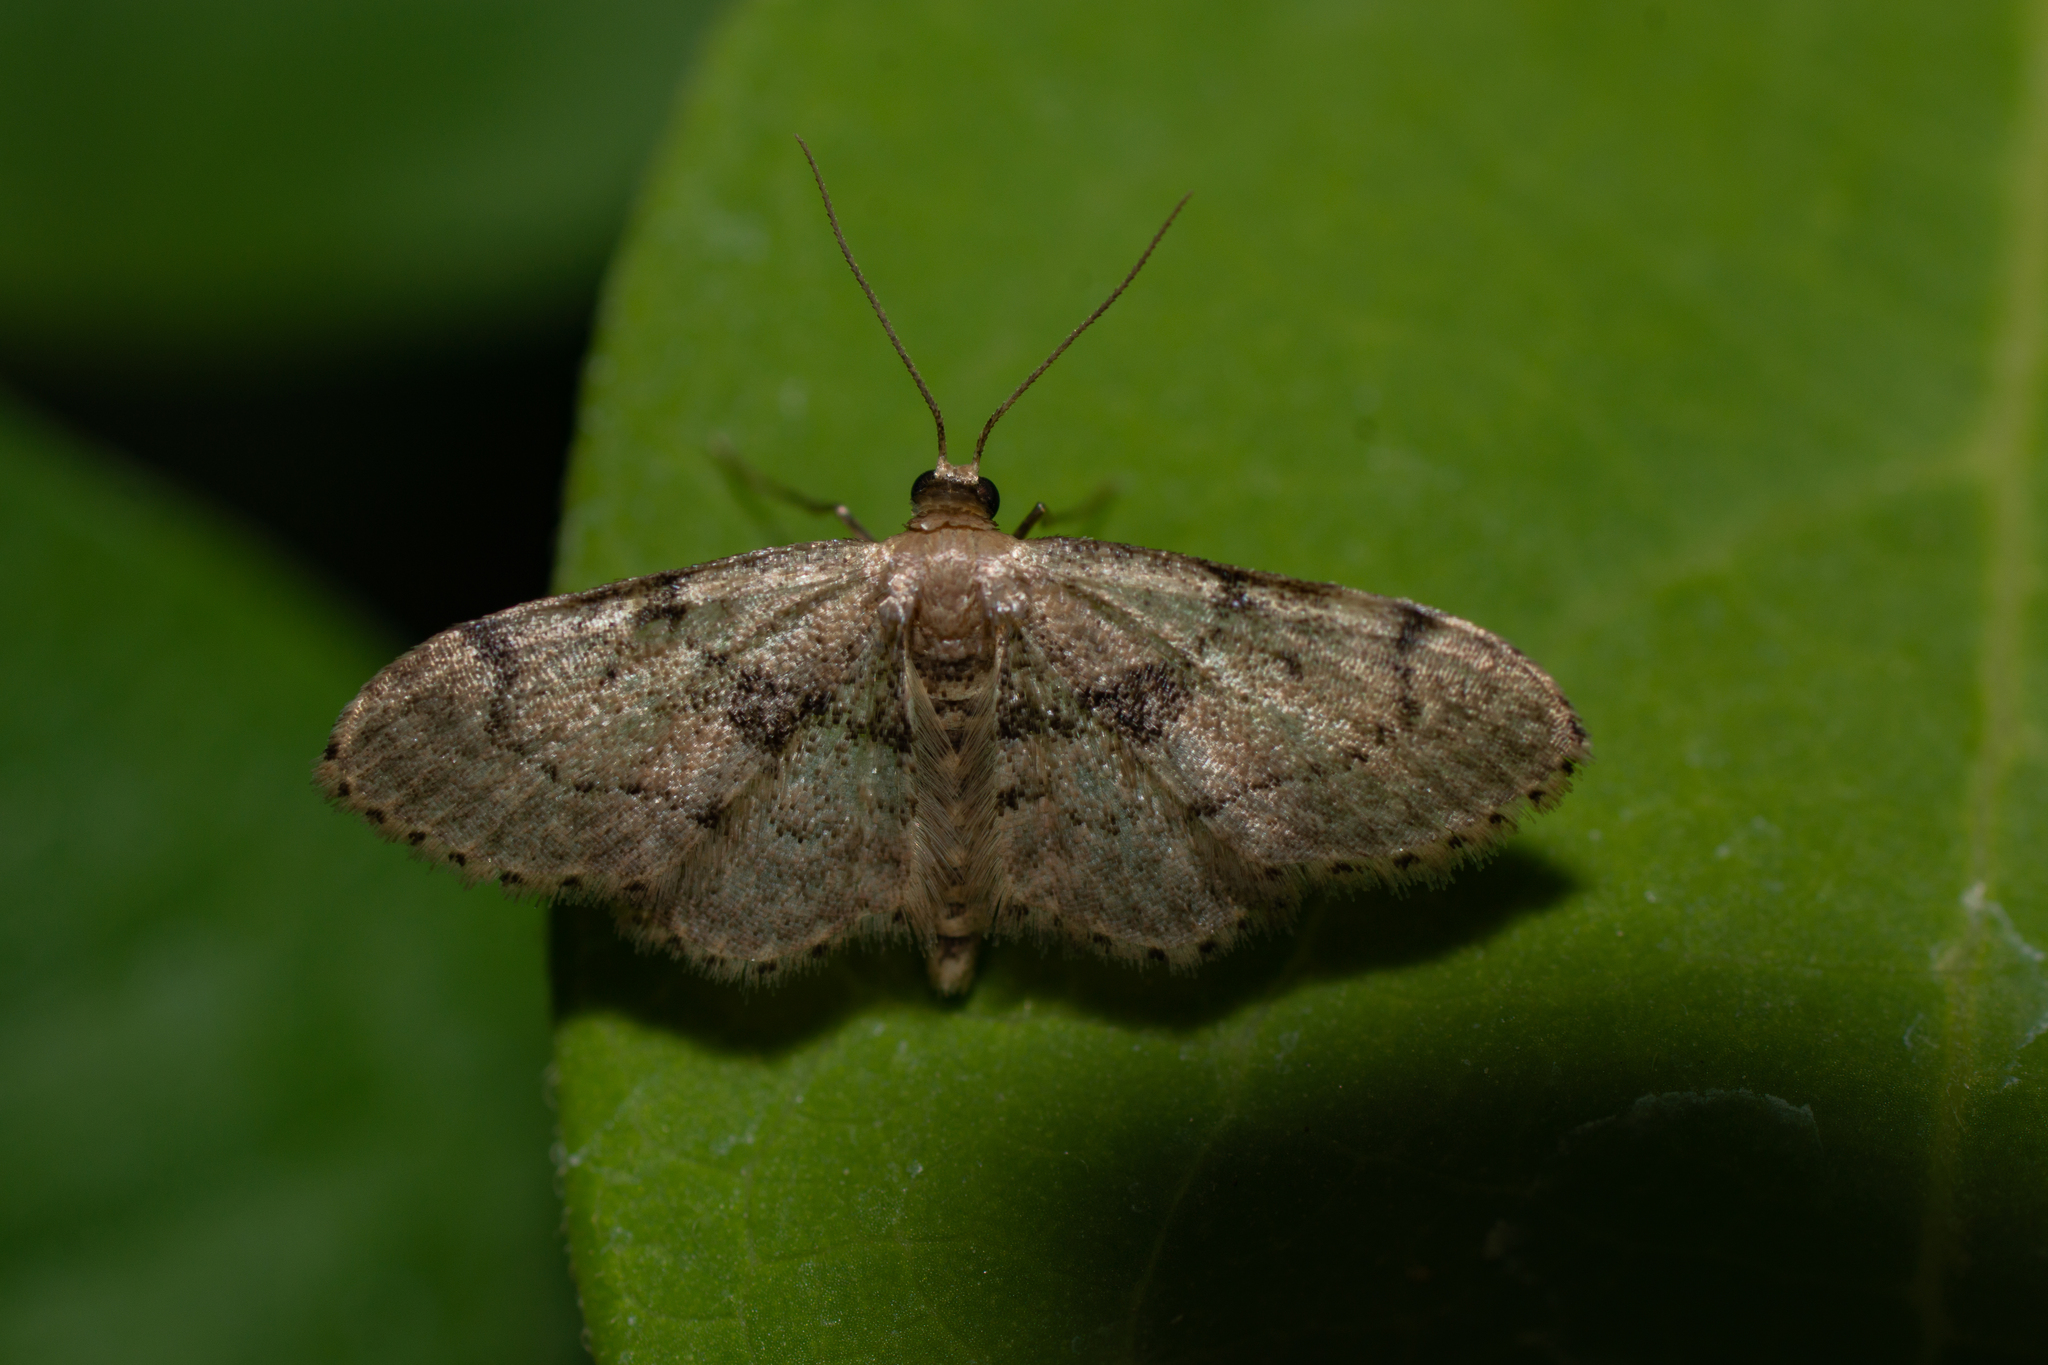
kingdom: Animalia
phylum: Arthropoda
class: Insecta
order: Lepidoptera
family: Geometridae
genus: Idaea
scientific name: Idaea laevigata
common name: Strange wave
